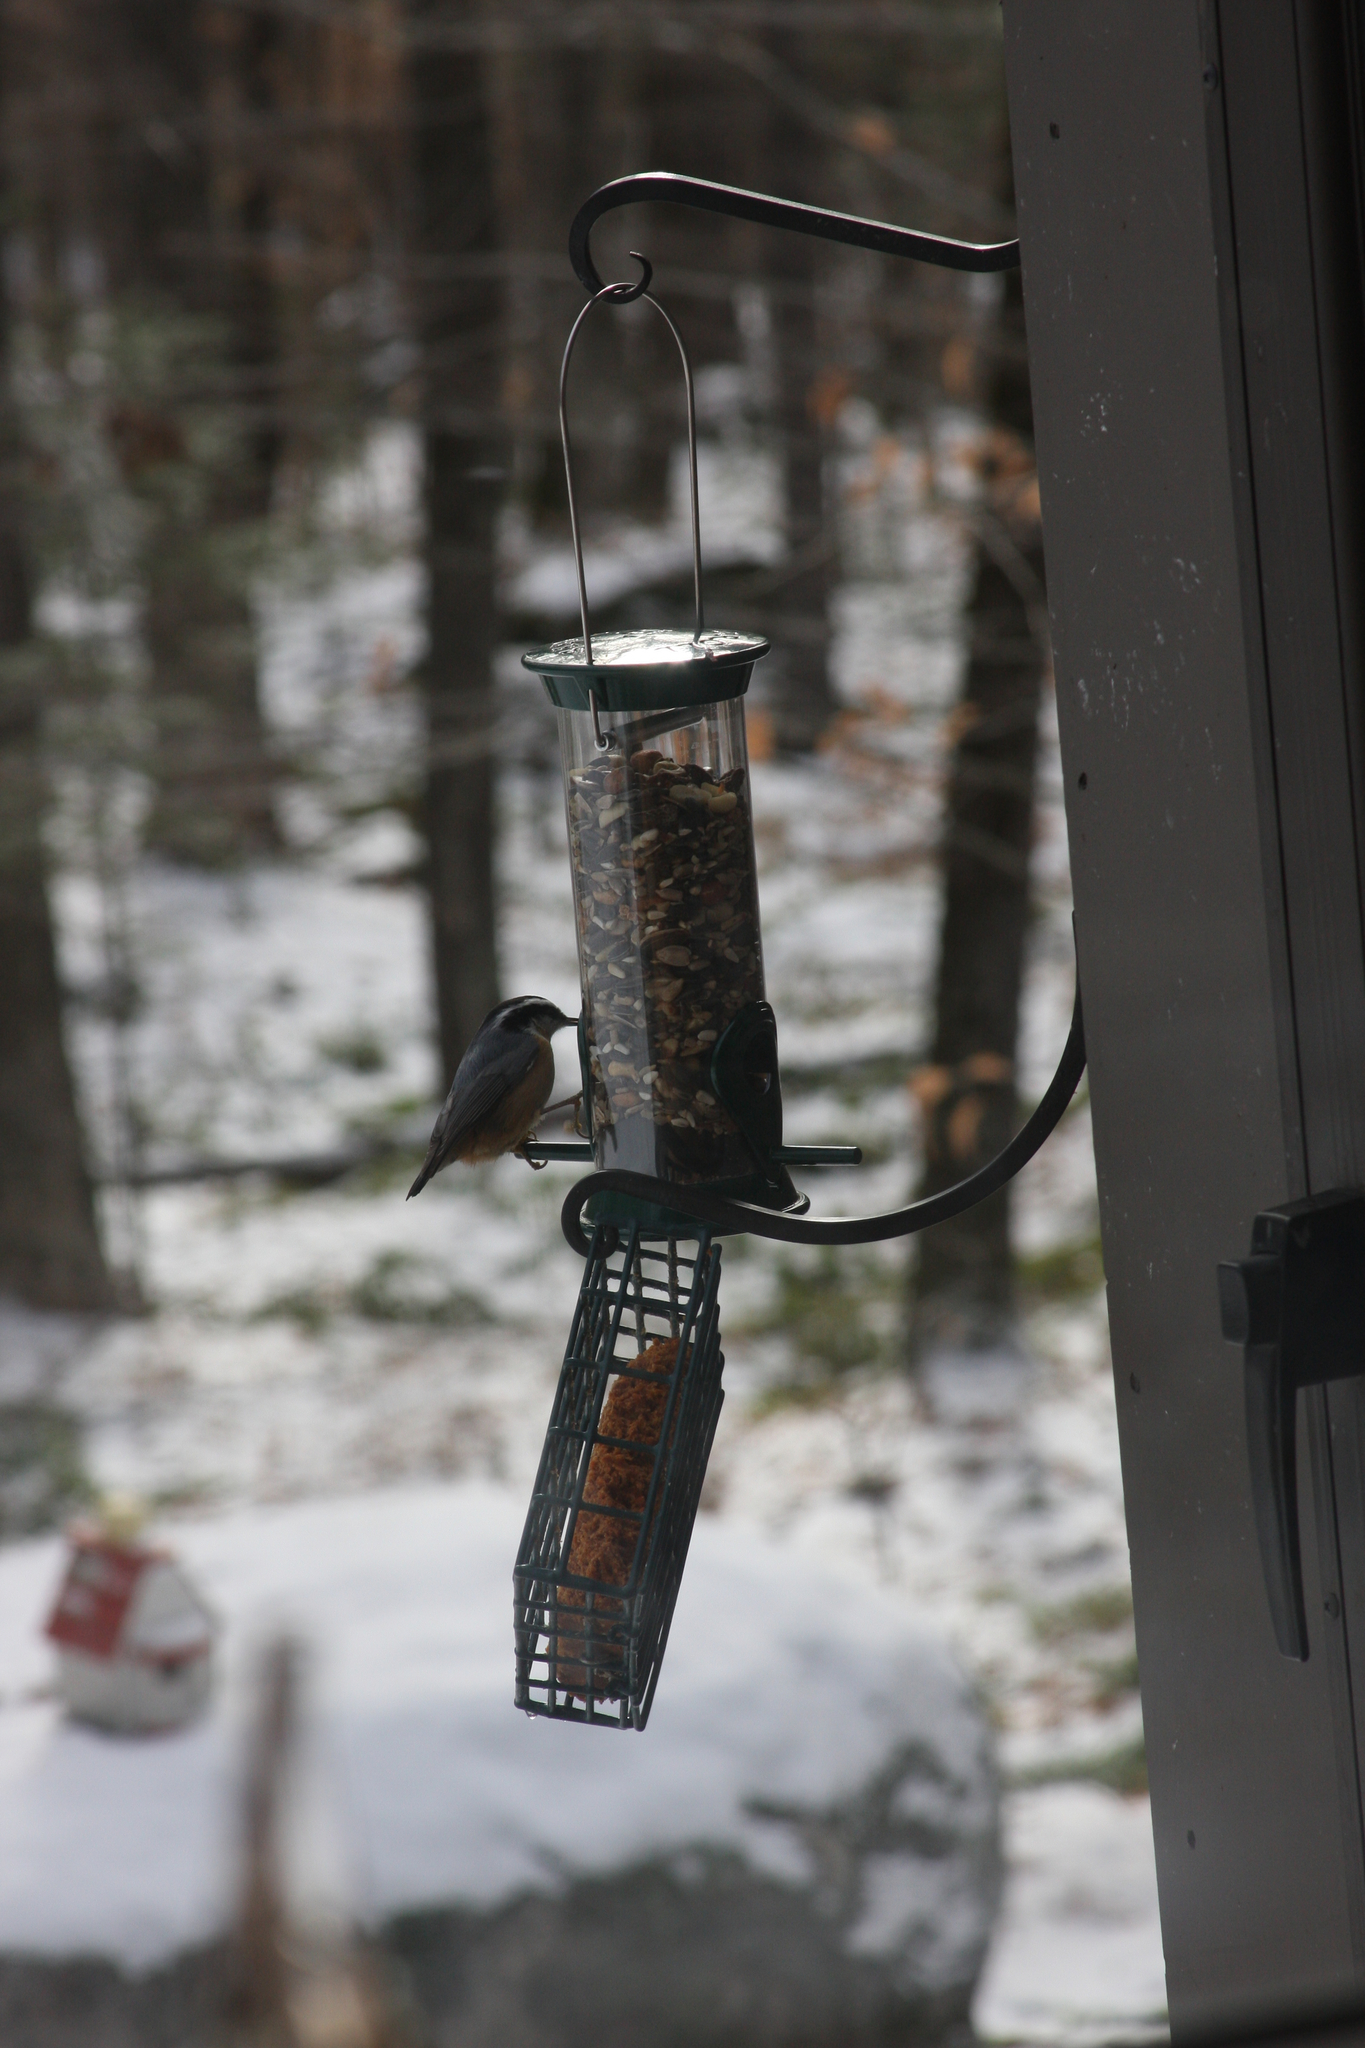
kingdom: Animalia
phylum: Chordata
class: Aves
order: Passeriformes
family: Sittidae
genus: Sitta
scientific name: Sitta canadensis
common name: Red-breasted nuthatch
